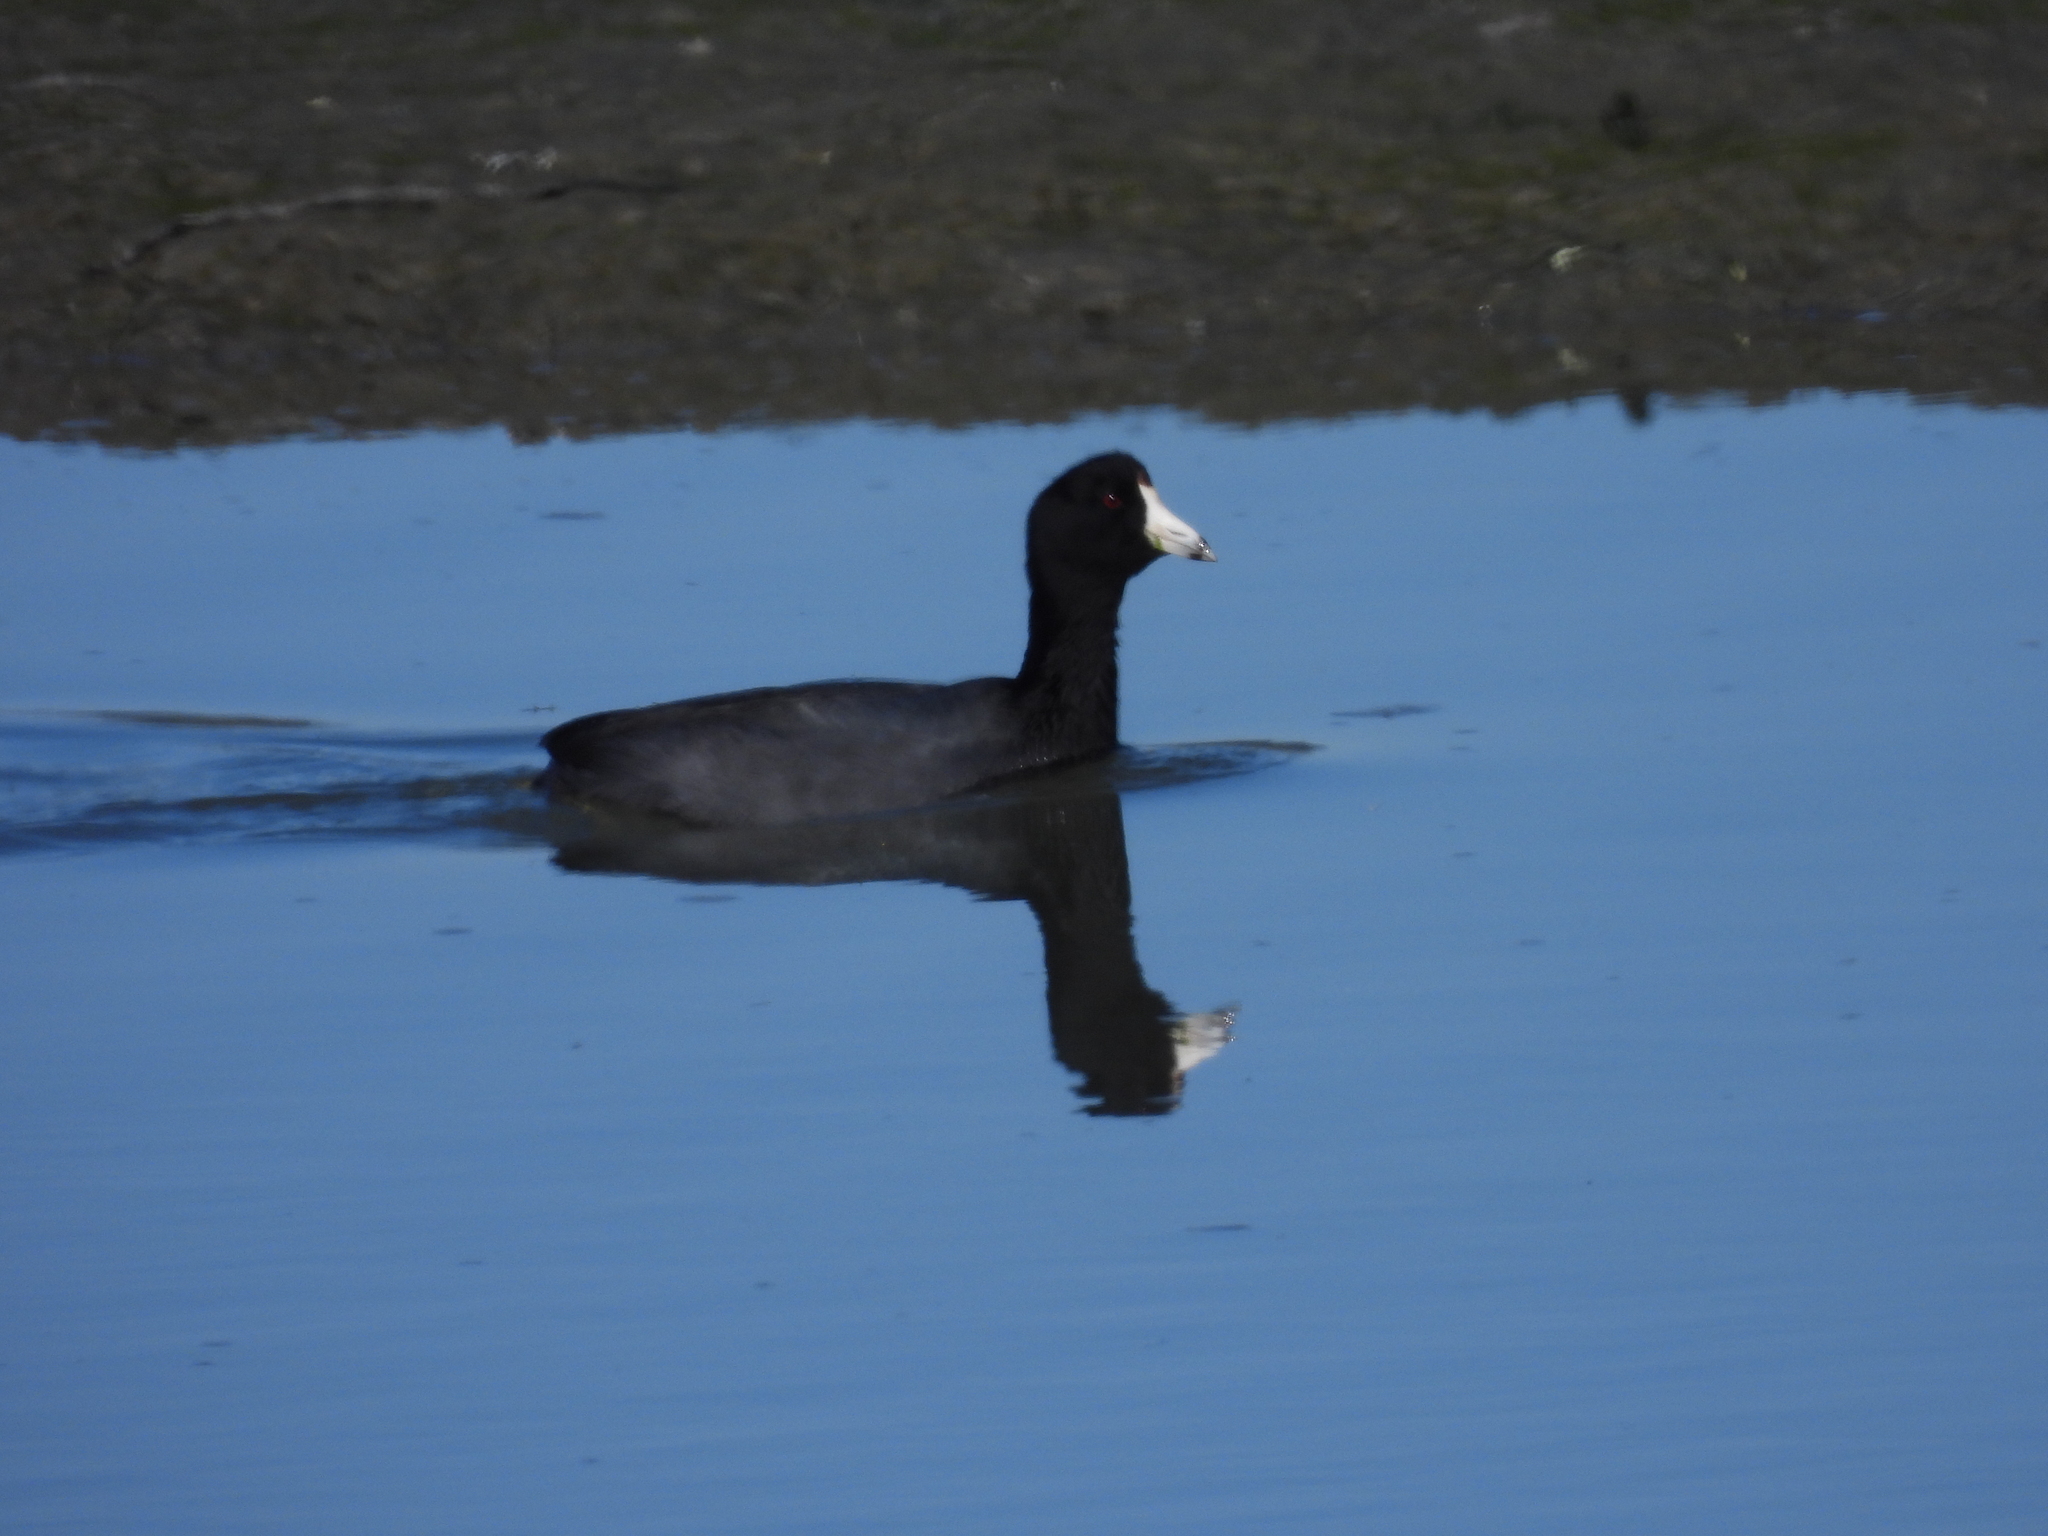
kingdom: Animalia
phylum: Chordata
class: Aves
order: Gruiformes
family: Rallidae
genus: Fulica
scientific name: Fulica americana
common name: American coot
